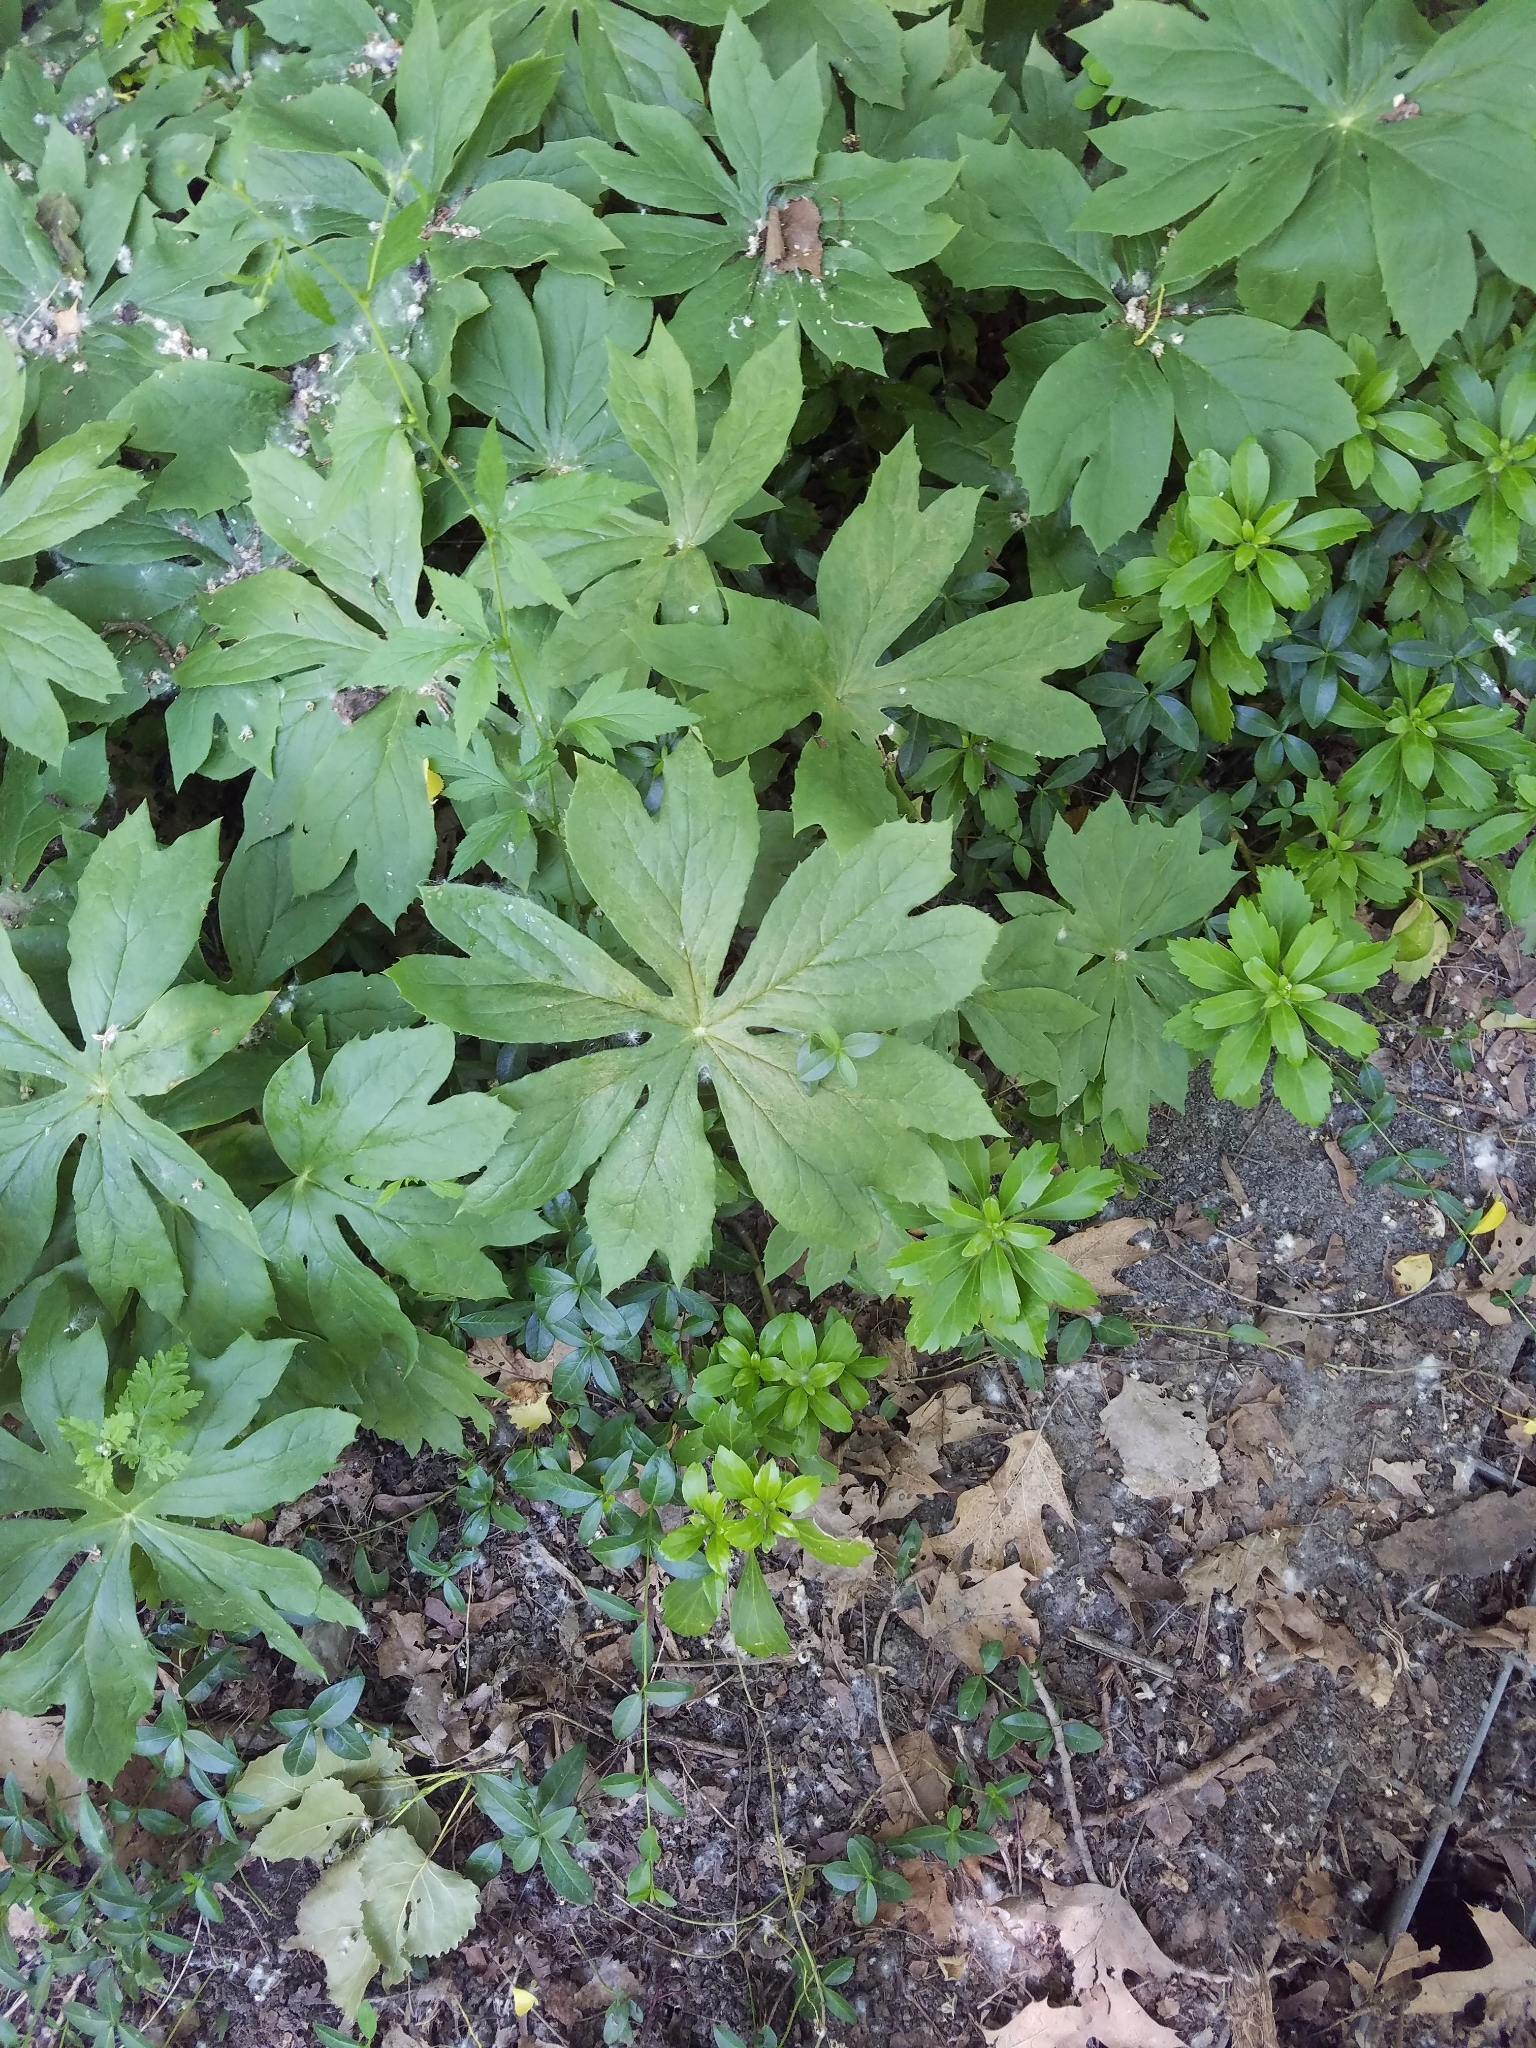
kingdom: Plantae
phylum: Tracheophyta
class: Magnoliopsida
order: Ranunculales
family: Berberidaceae
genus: Podophyllum
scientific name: Podophyllum peltatum
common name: Wild mandrake
